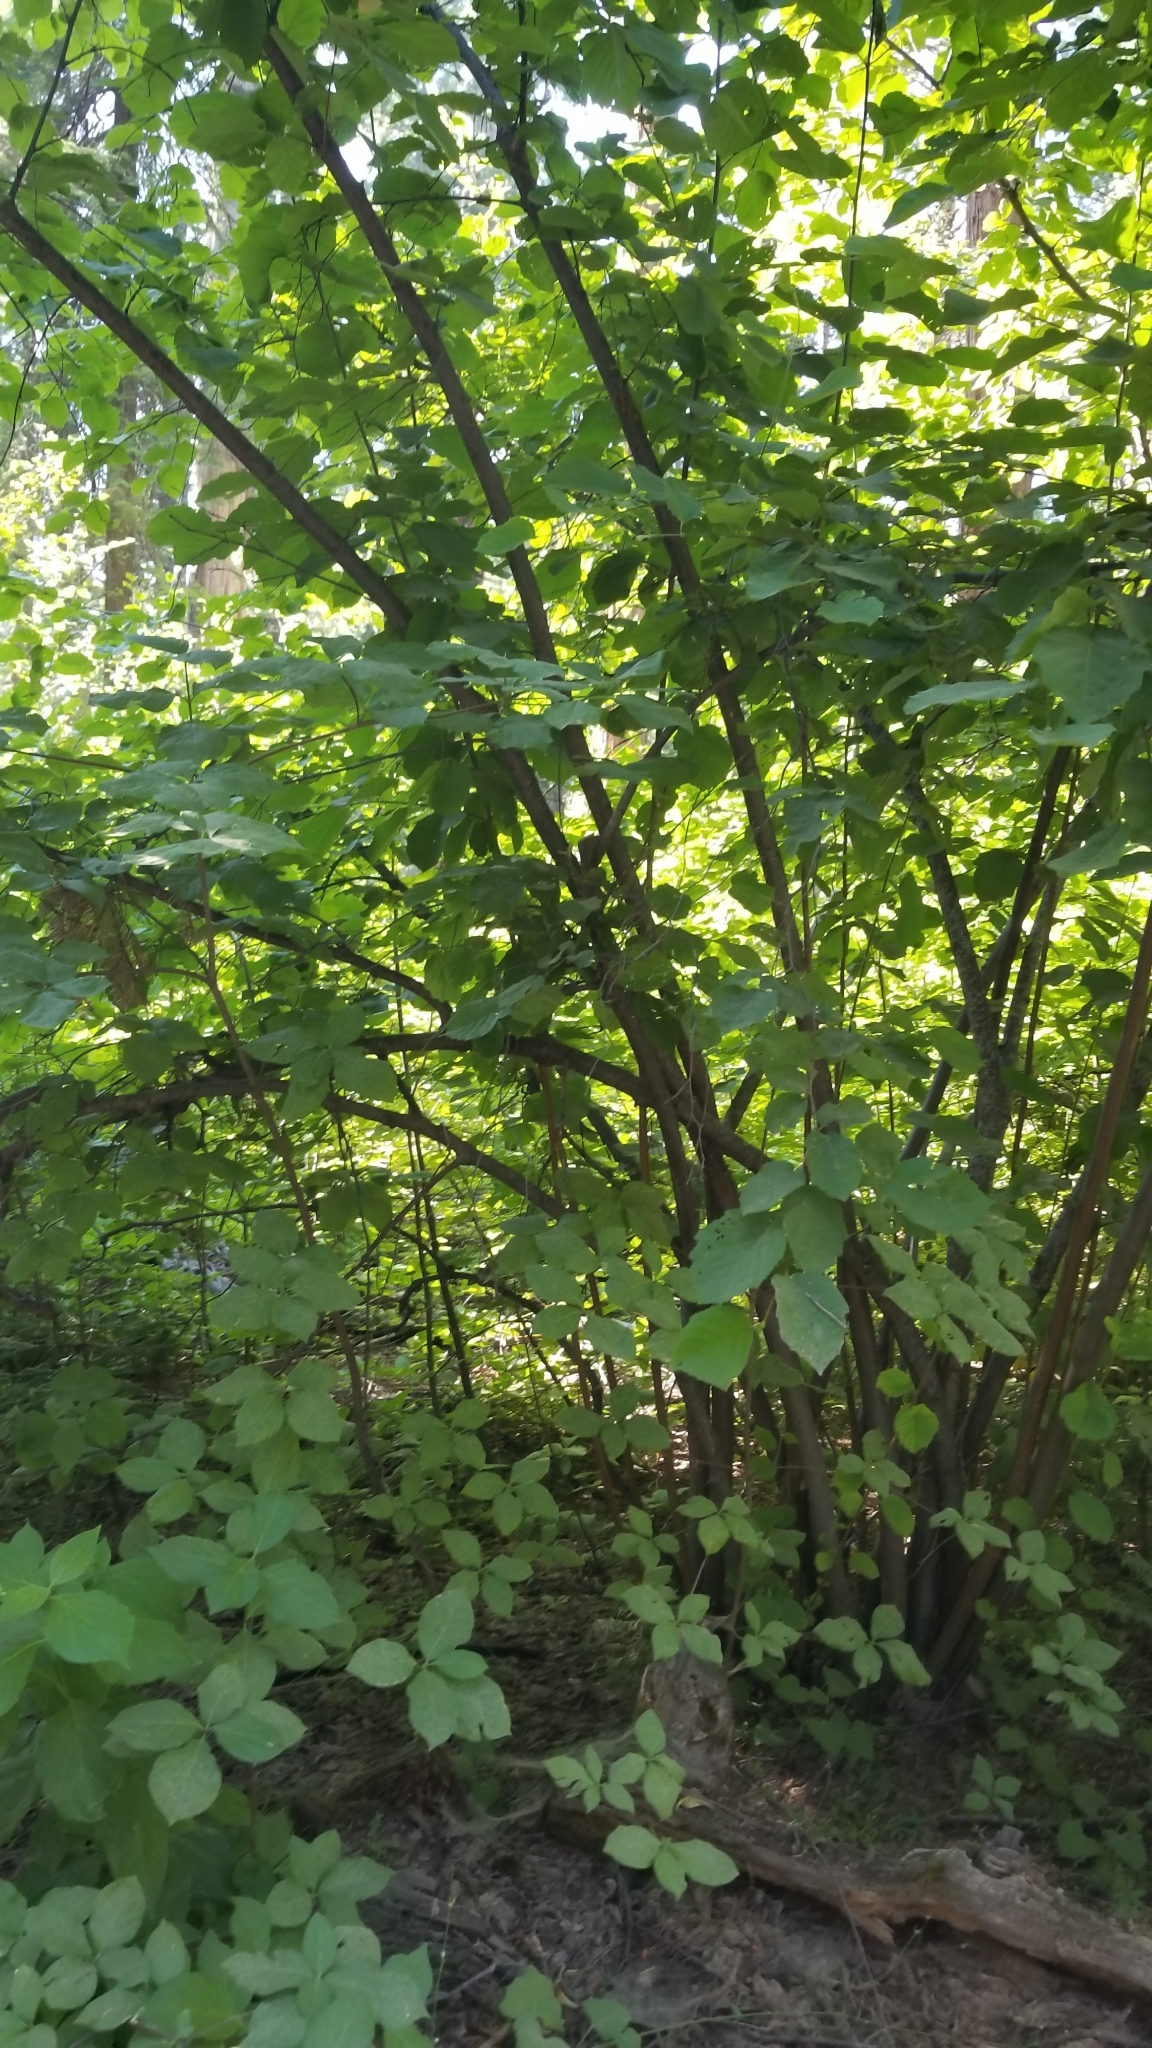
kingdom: Plantae
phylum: Tracheophyta
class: Magnoliopsida
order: Fagales
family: Betulaceae
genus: Corylus
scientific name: Corylus cornuta
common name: Beaked hazel
